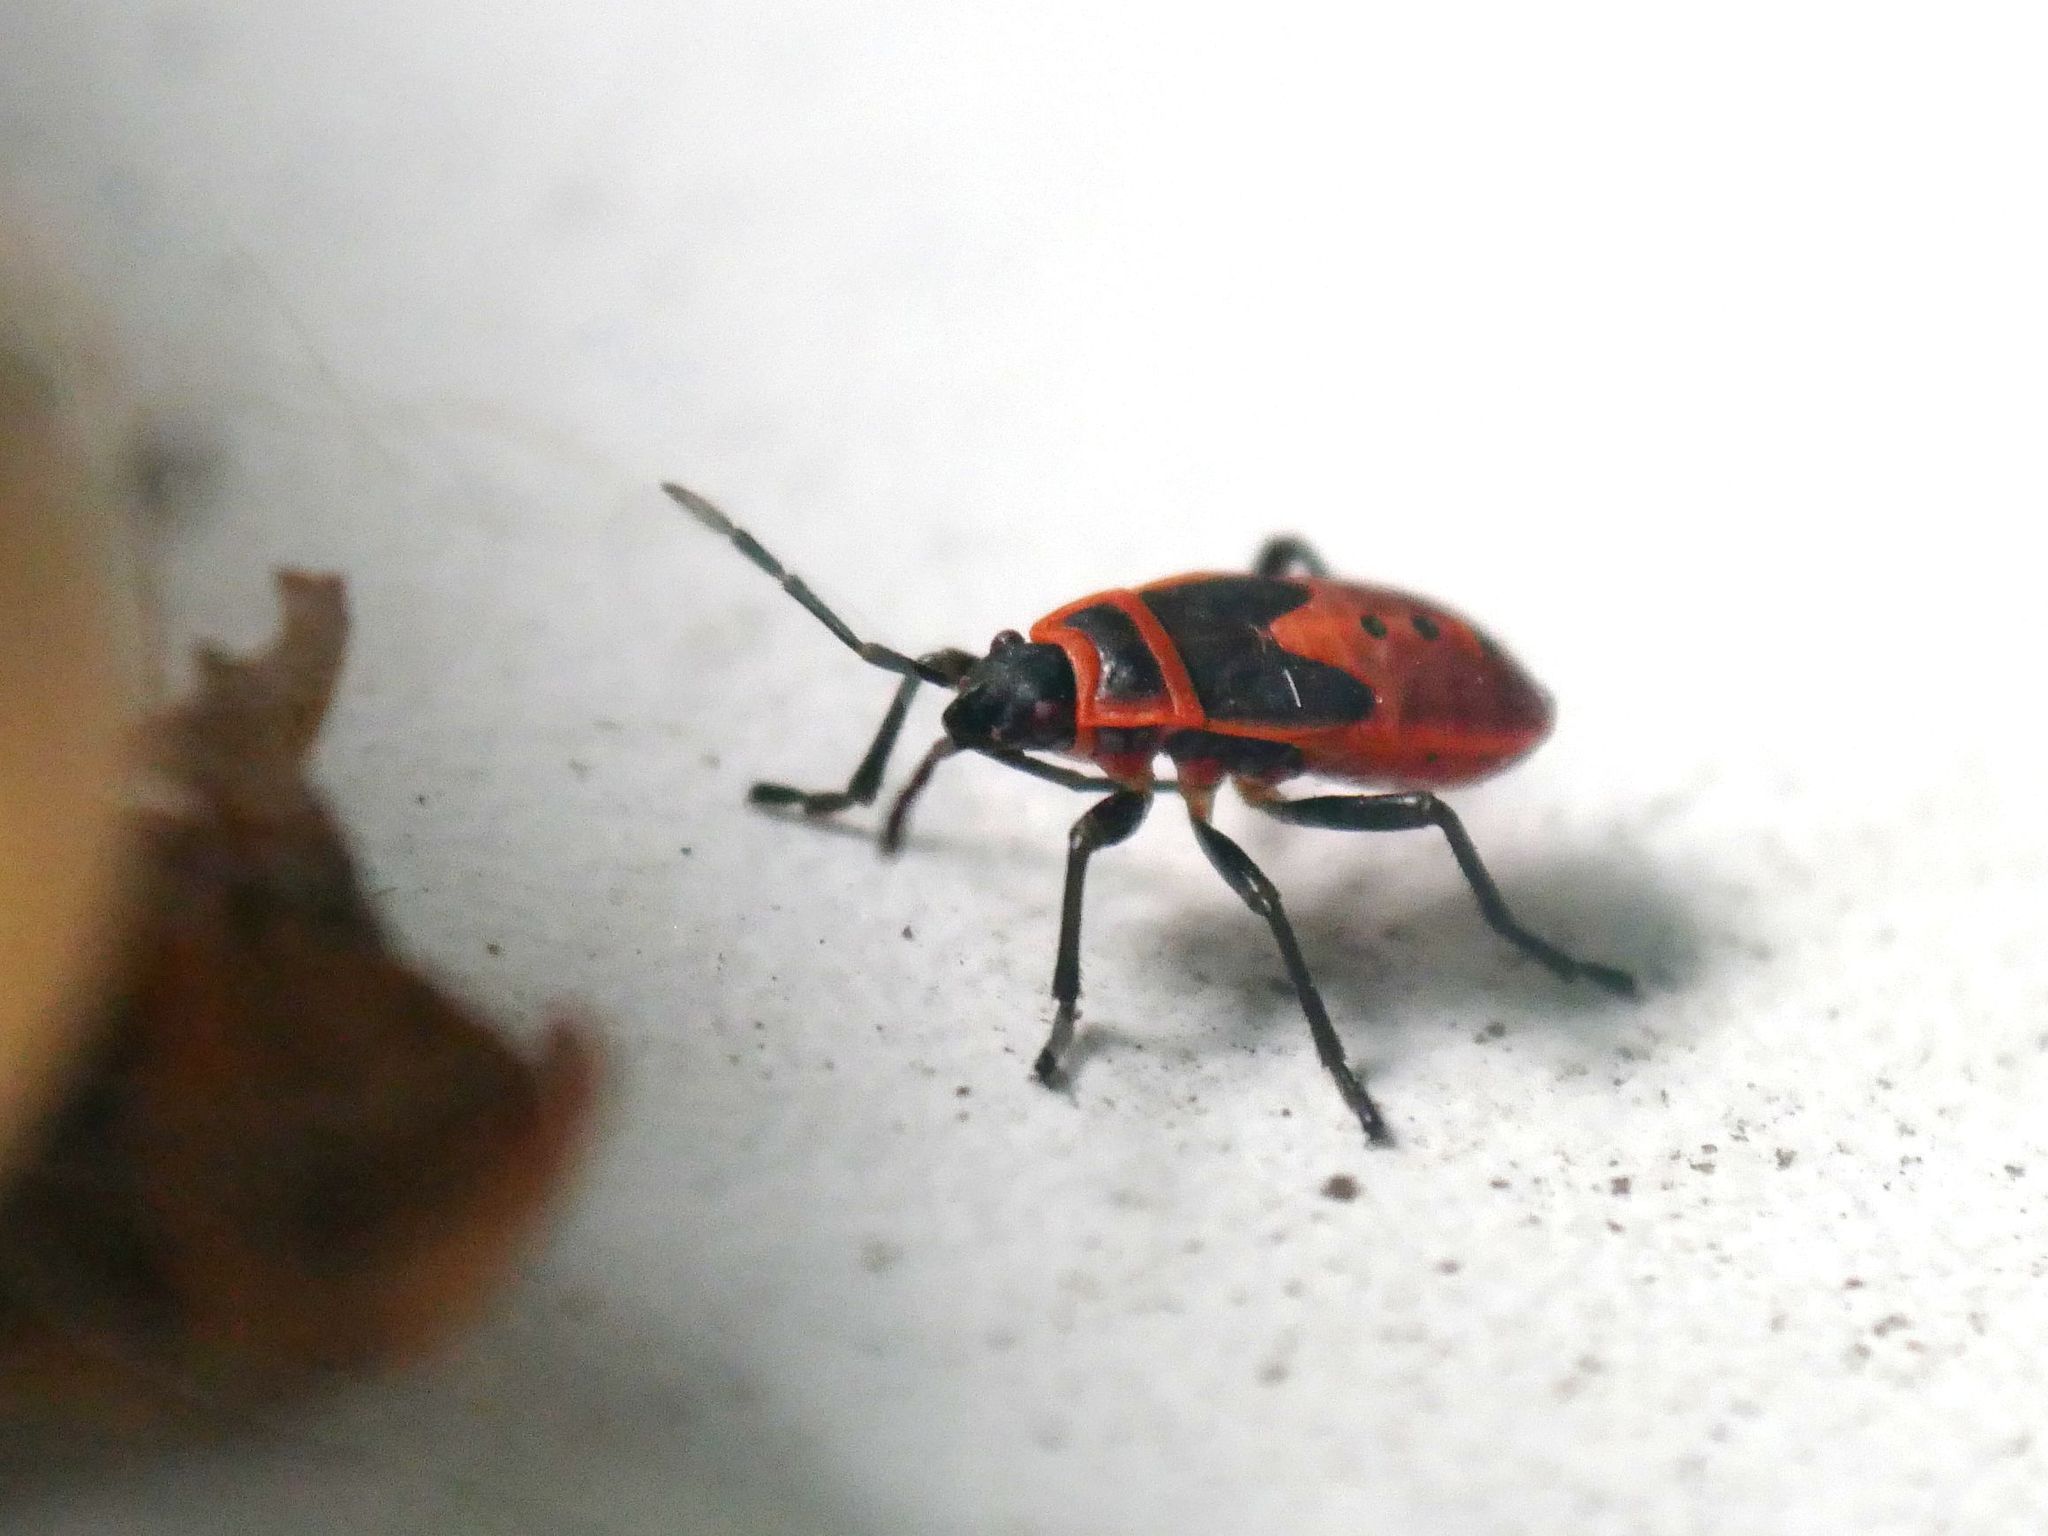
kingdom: Animalia
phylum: Arthropoda
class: Insecta
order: Hemiptera
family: Pyrrhocoridae
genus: Pyrrhocoris
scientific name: Pyrrhocoris apterus
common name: Firebug
